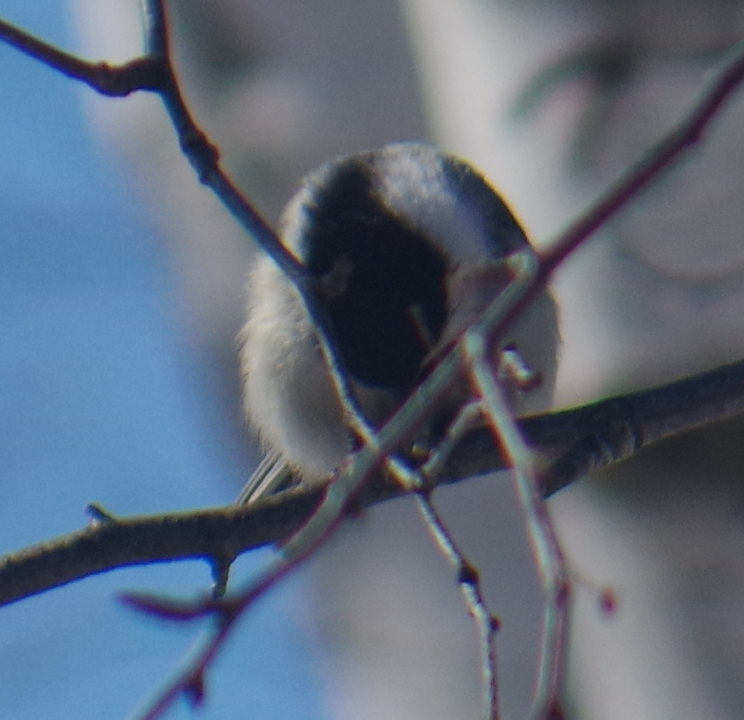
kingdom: Animalia
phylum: Chordata
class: Aves
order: Passeriformes
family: Paridae
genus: Poecile
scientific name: Poecile atricapillus
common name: Black-capped chickadee
